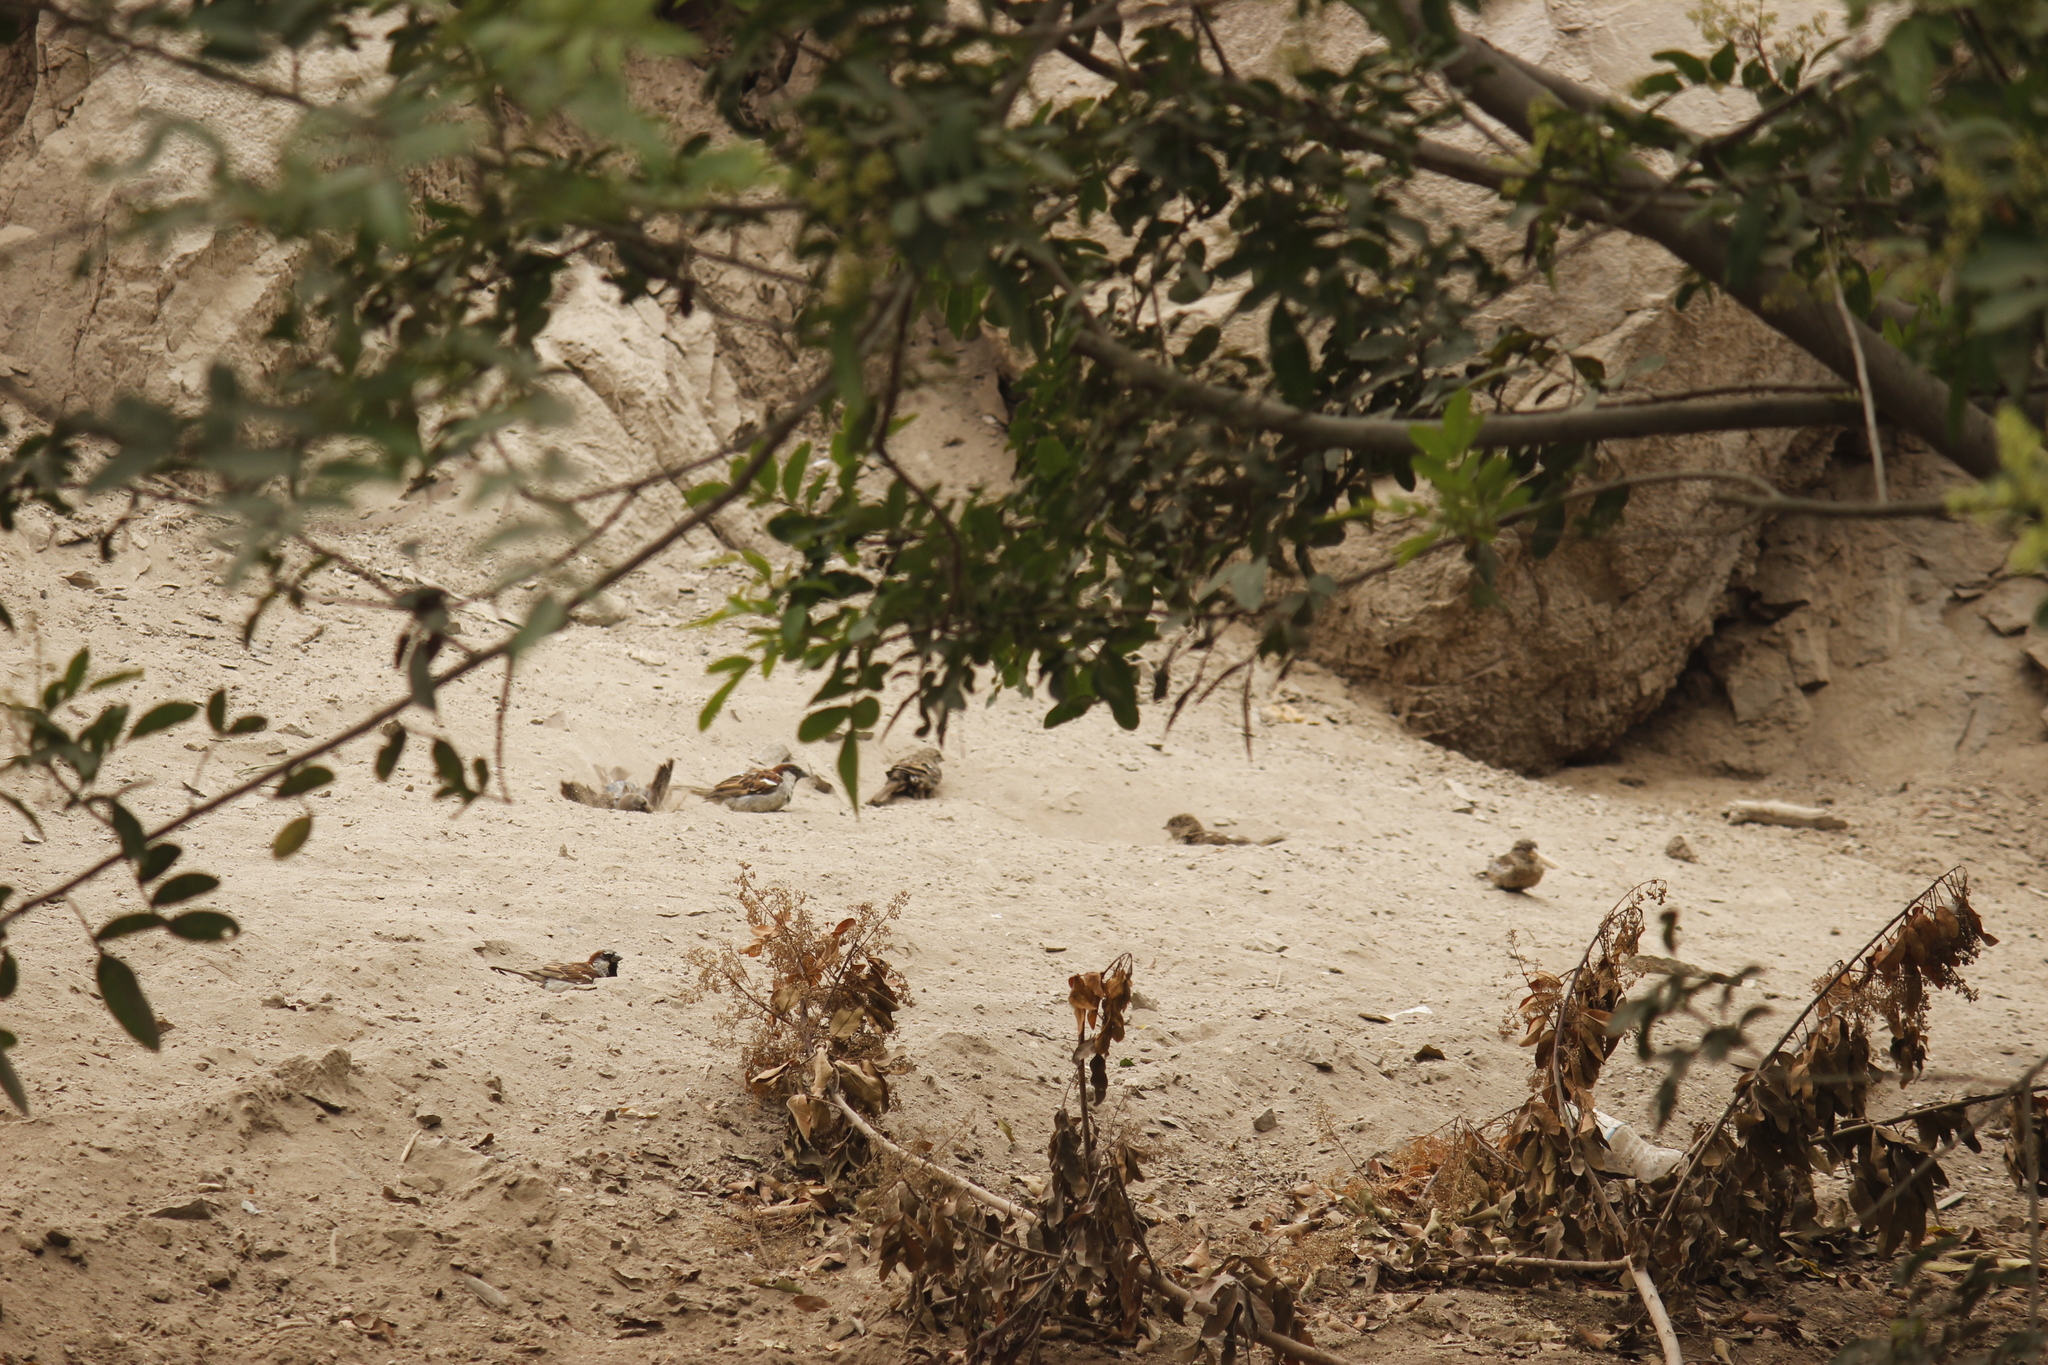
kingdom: Animalia
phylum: Chordata
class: Aves
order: Passeriformes
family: Passeridae
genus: Passer
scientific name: Passer domesticus
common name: House sparrow
